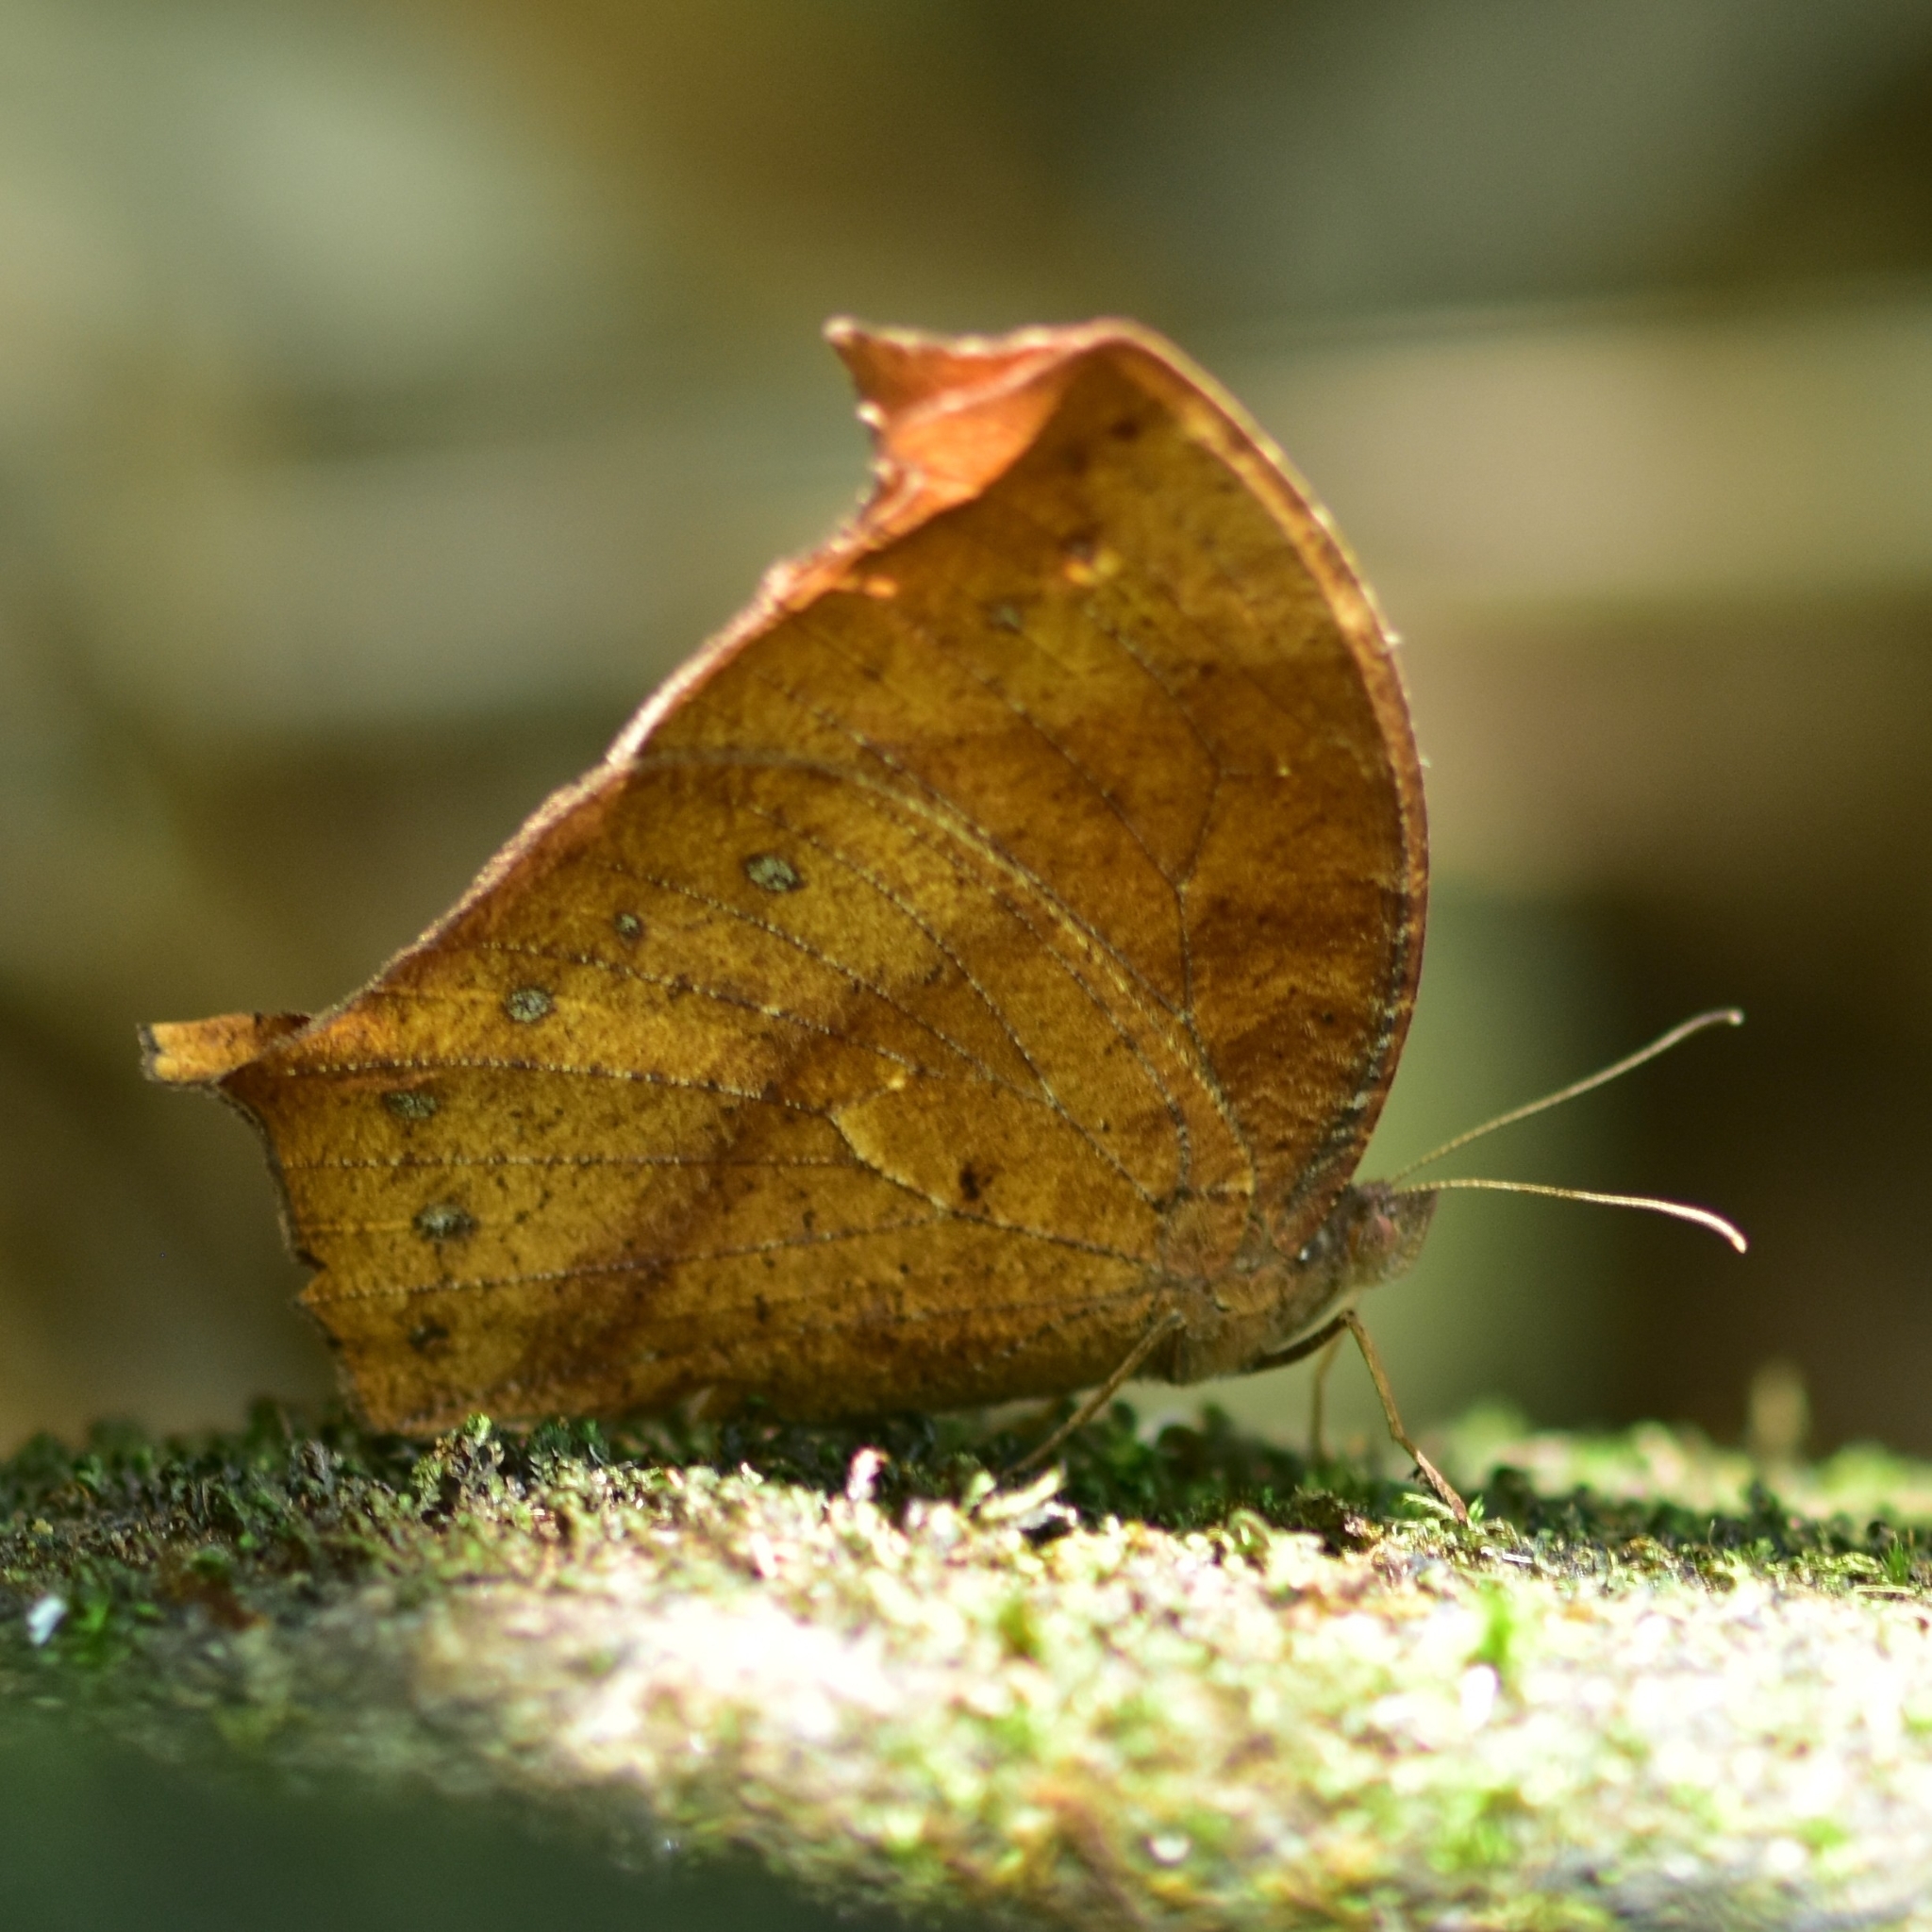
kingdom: Animalia
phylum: Arthropoda
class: Insecta
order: Lepidoptera
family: Nymphalidae
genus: Melanitis
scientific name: Melanitis phedima
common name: Dark evening brown
